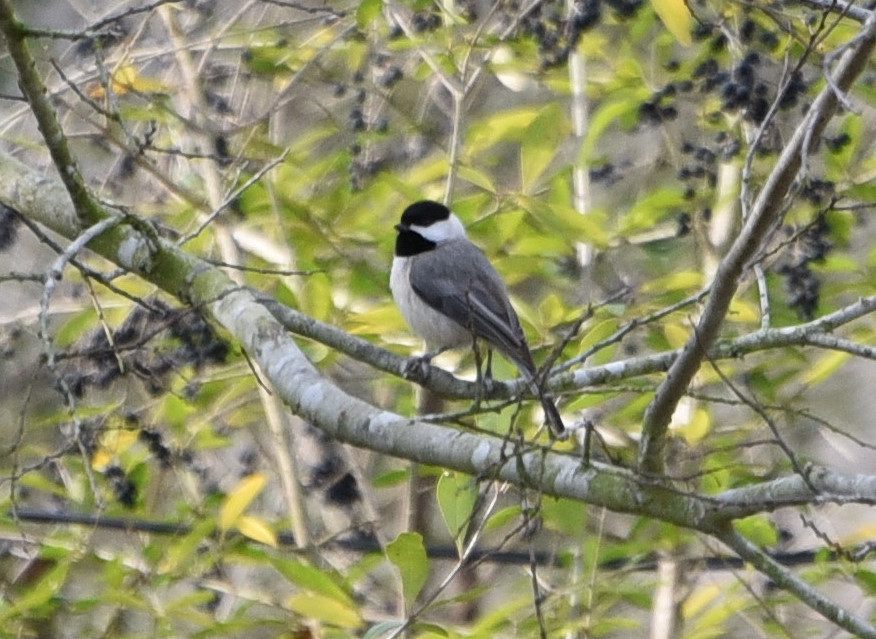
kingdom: Animalia
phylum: Chordata
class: Aves
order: Passeriformes
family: Paridae
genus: Poecile
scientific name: Poecile carolinensis
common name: Carolina chickadee
